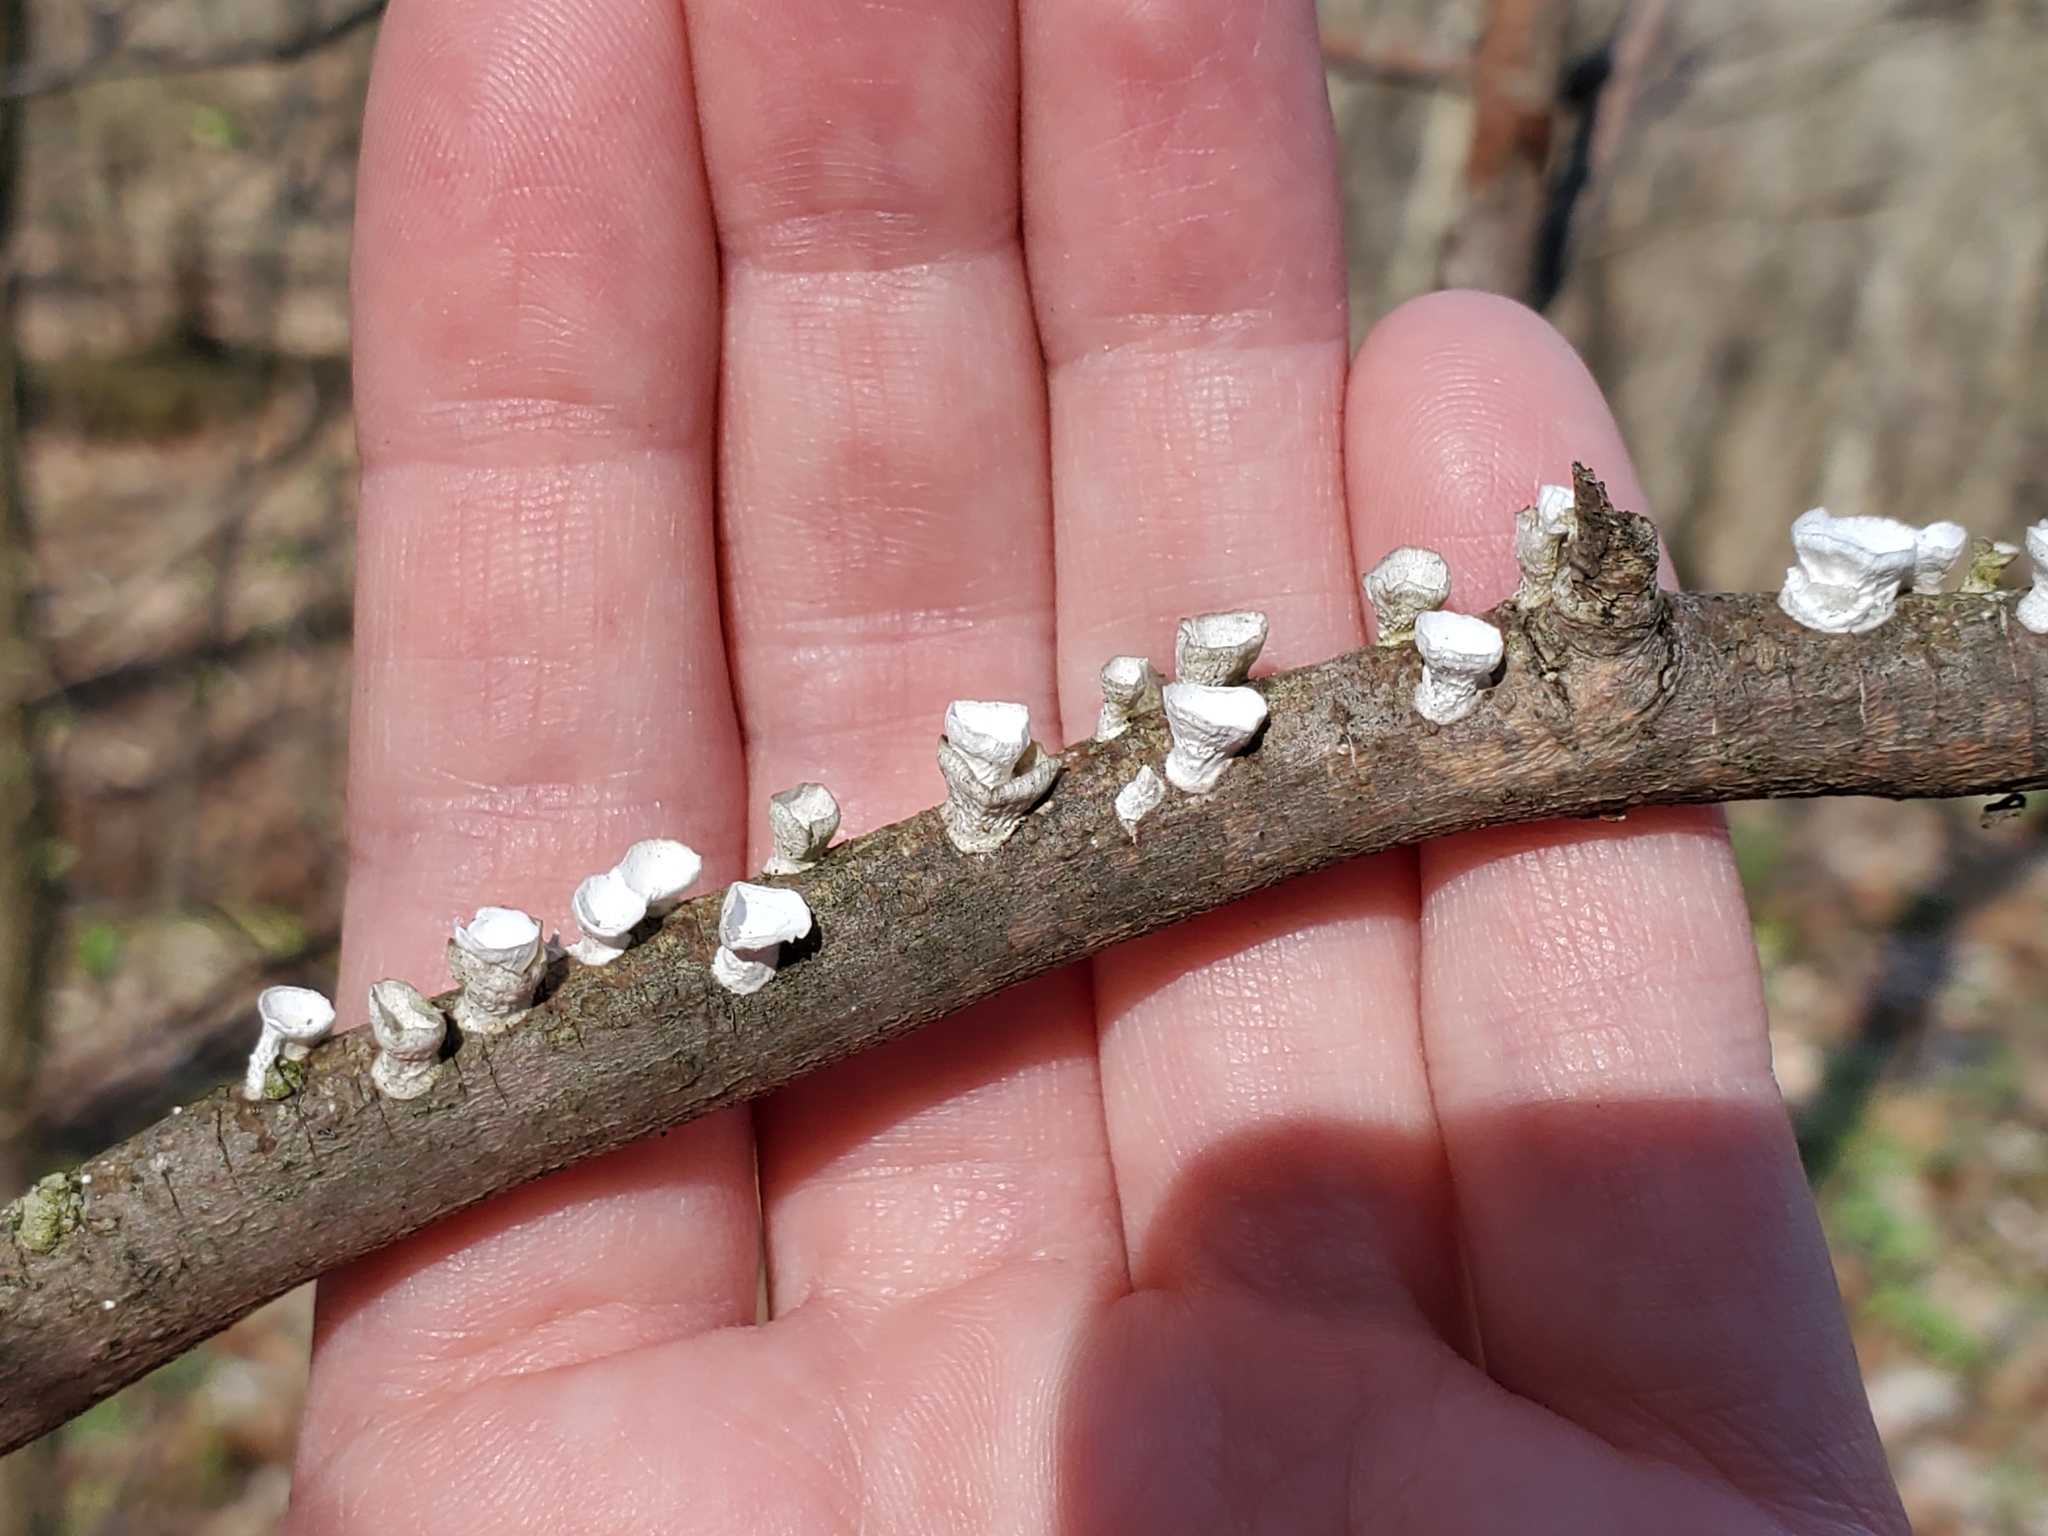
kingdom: Fungi
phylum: Basidiomycota
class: Agaricomycetes
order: Polyporales
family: Polyporaceae
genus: Poronidulus
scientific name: Poronidulus conchifer
